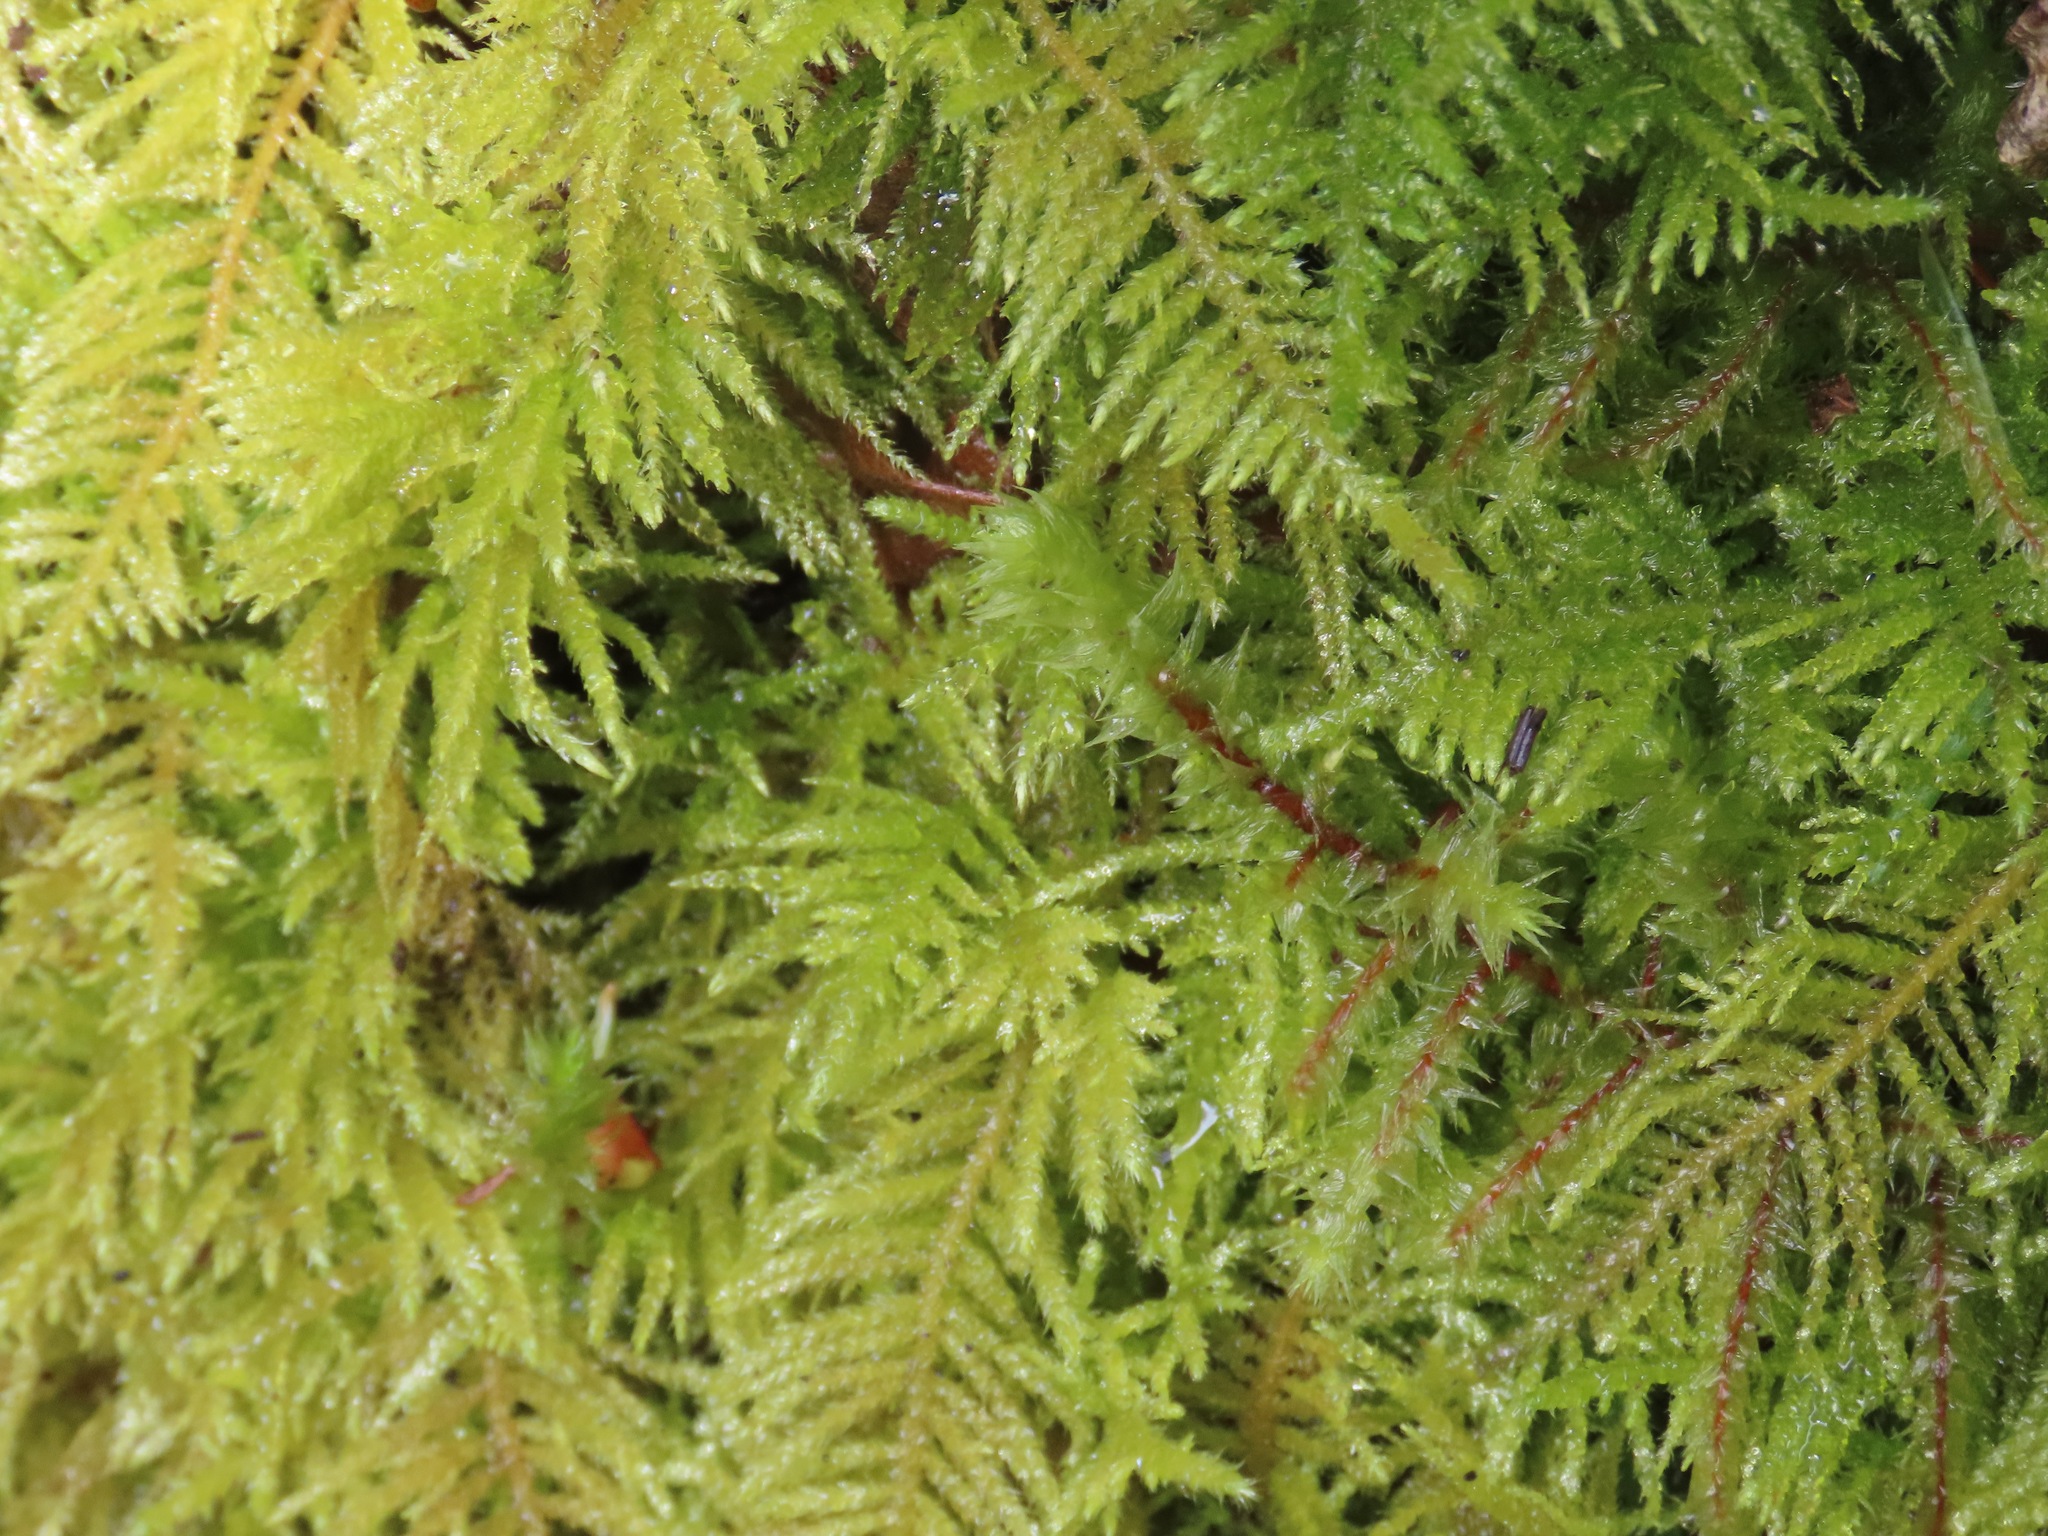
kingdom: Plantae
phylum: Bryophyta
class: Bryopsida
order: Hypnales
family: Brachytheciaceae
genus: Kindbergia
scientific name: Kindbergia oregana
